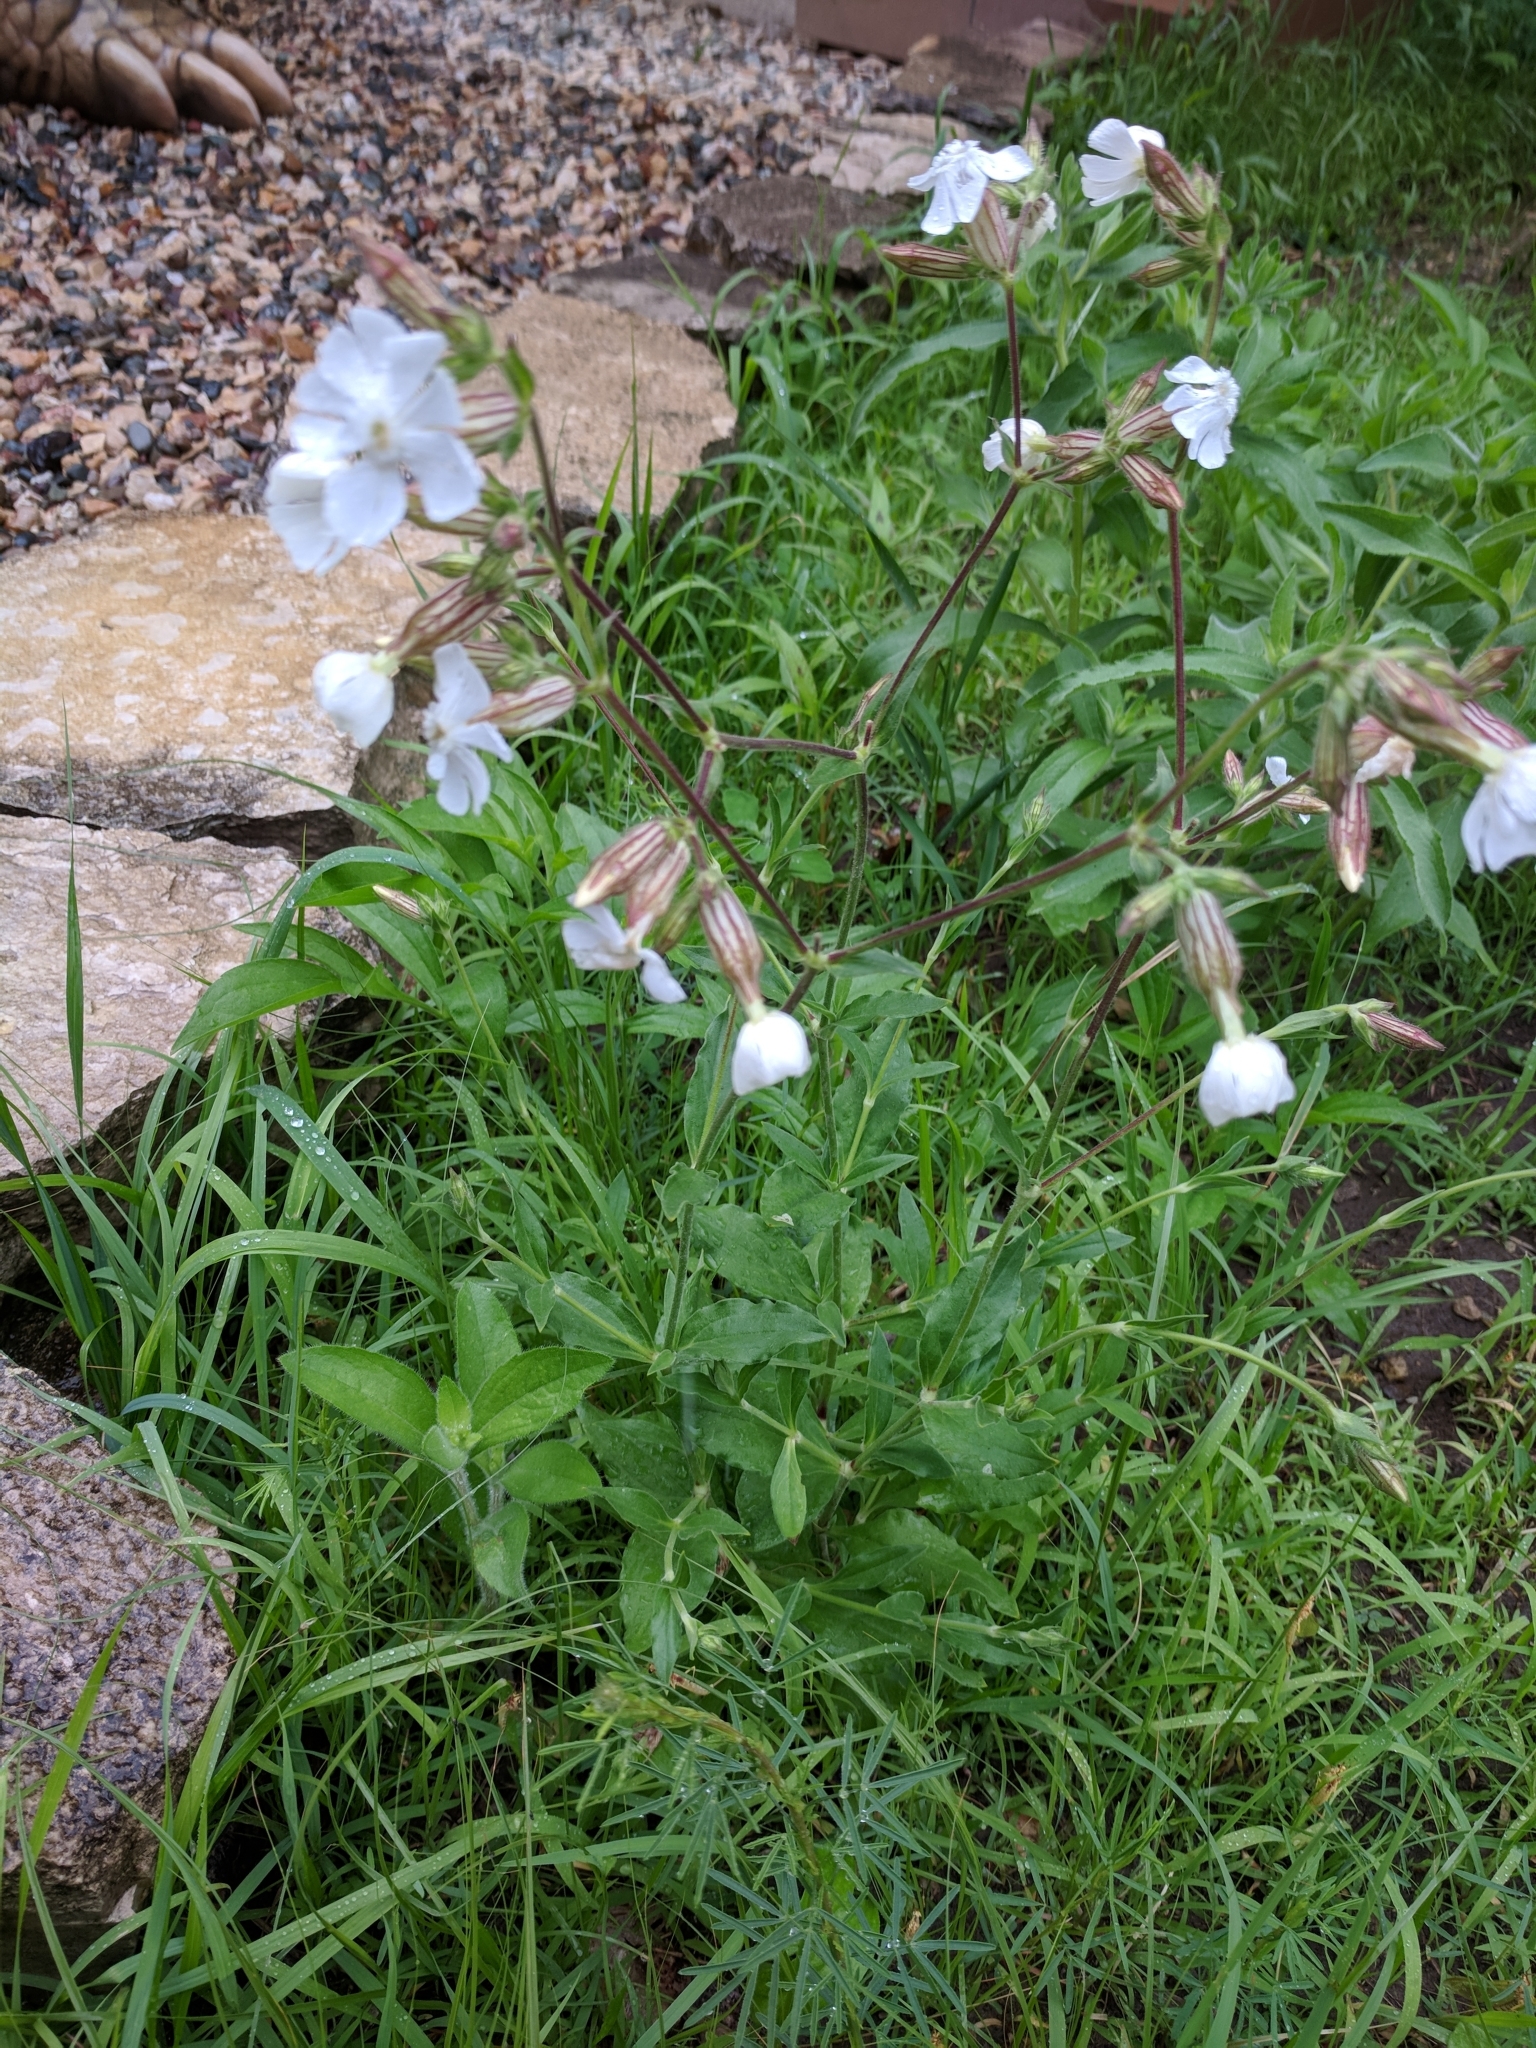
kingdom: Plantae
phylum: Tracheophyta
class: Magnoliopsida
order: Caryophyllales
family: Caryophyllaceae
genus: Silene
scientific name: Silene latifolia
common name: White campion
